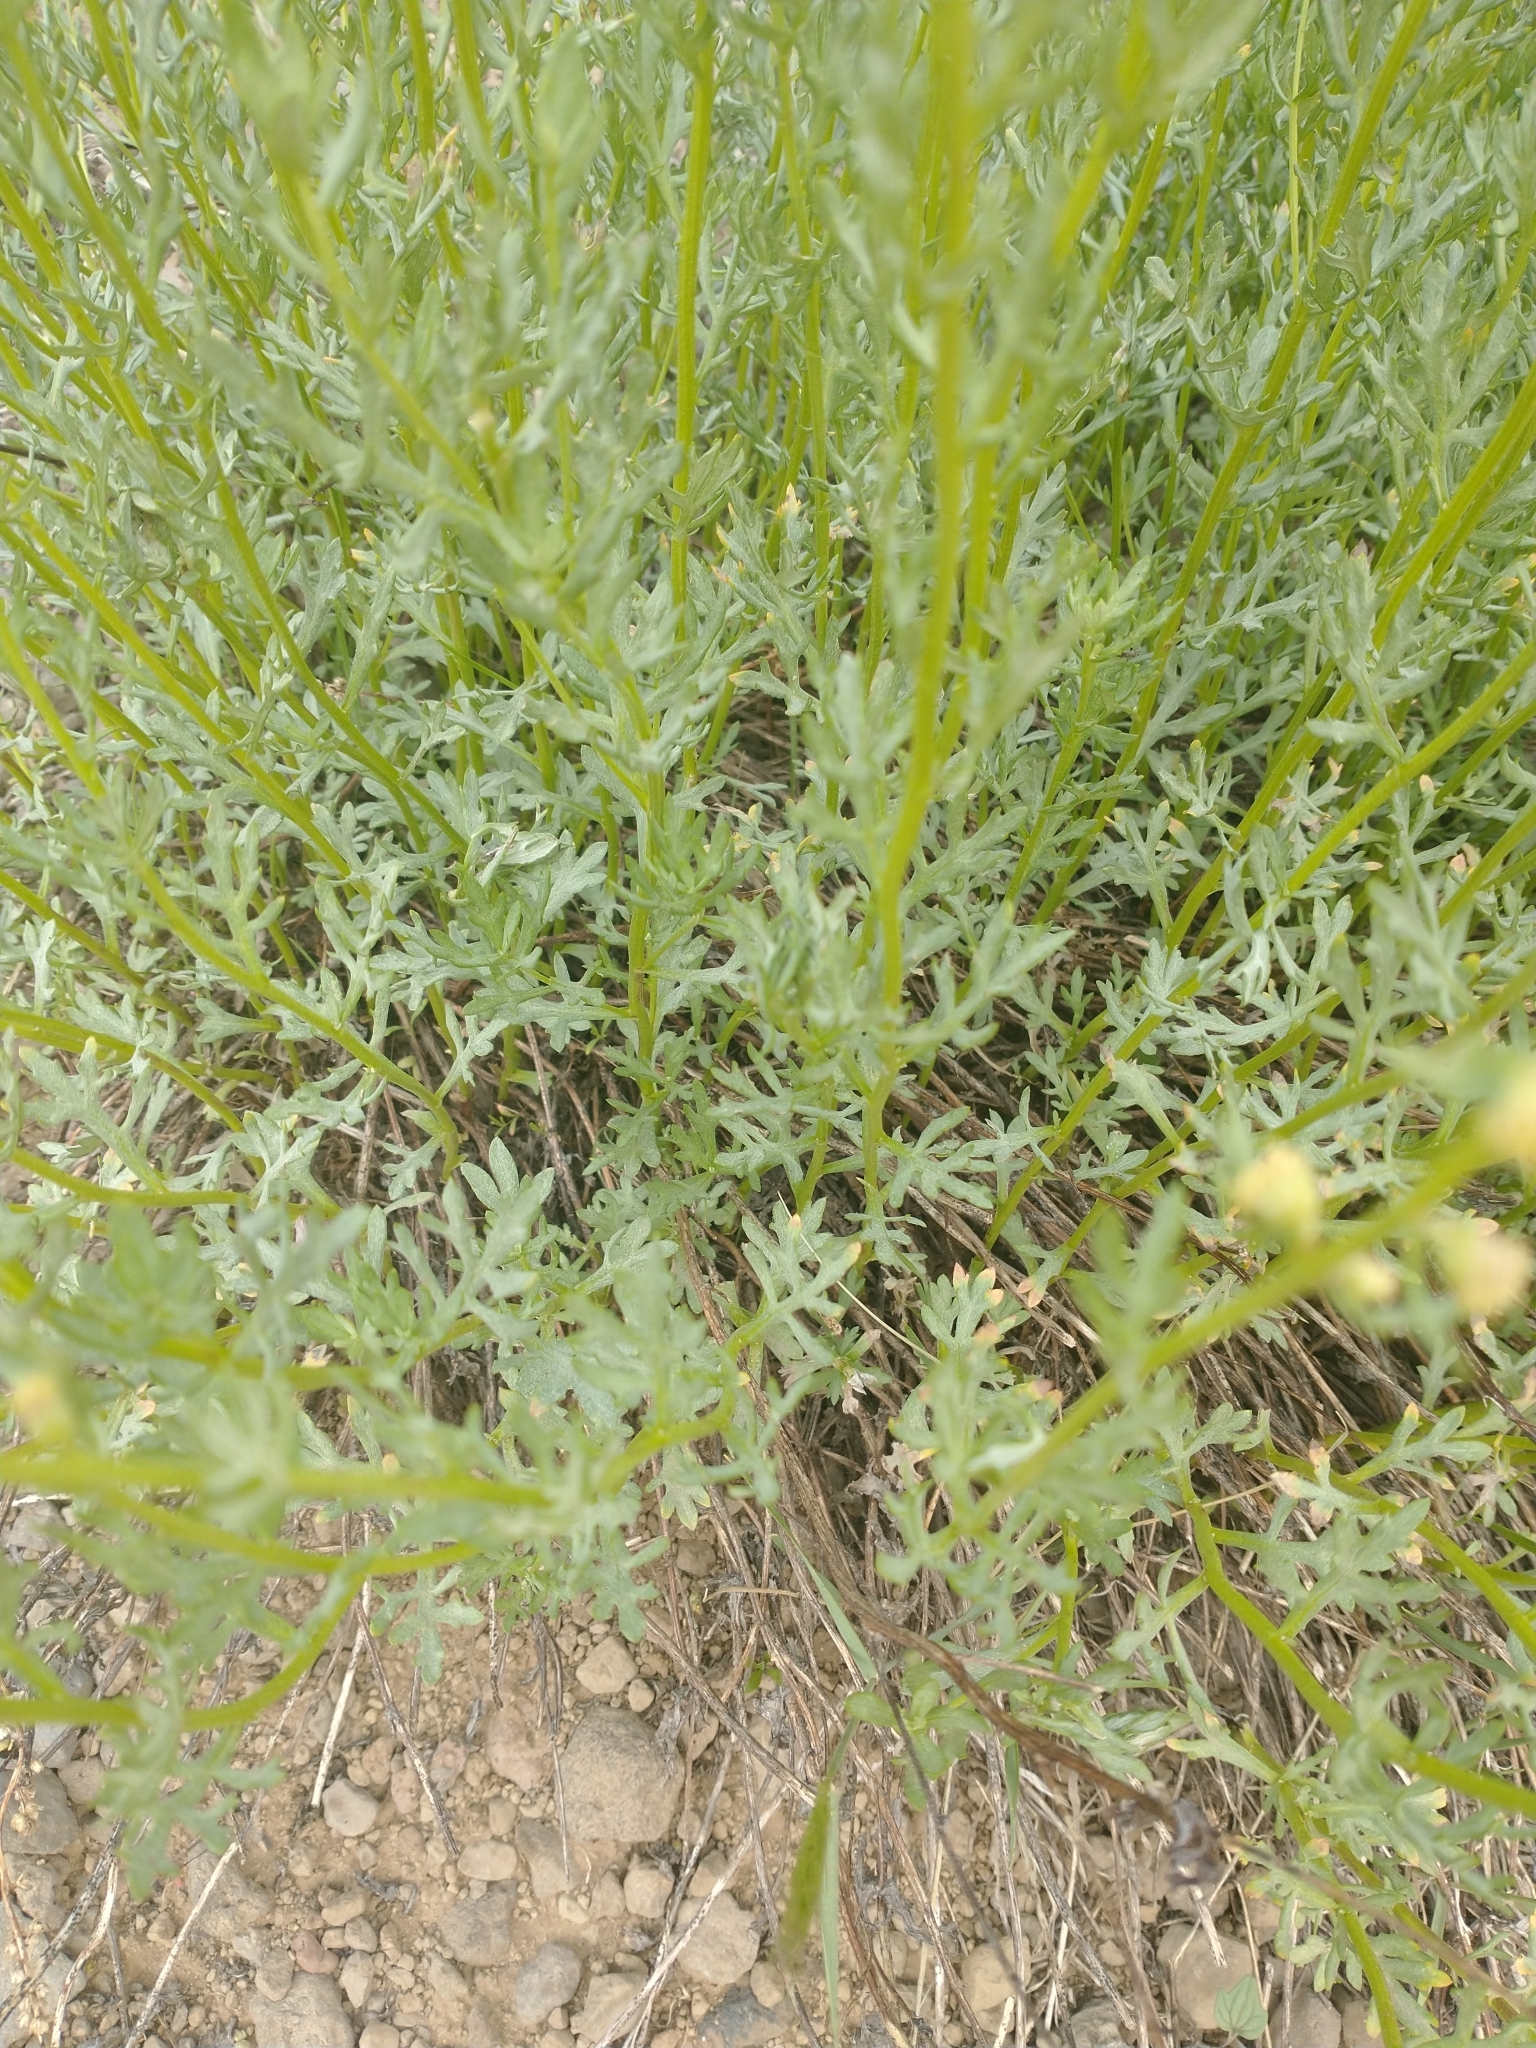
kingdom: Plantae
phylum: Tracheophyta
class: Magnoliopsida
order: Asterales
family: Asteraceae
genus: Artemisia
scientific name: Artemisia michauxiana
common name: Lemon sagewort
